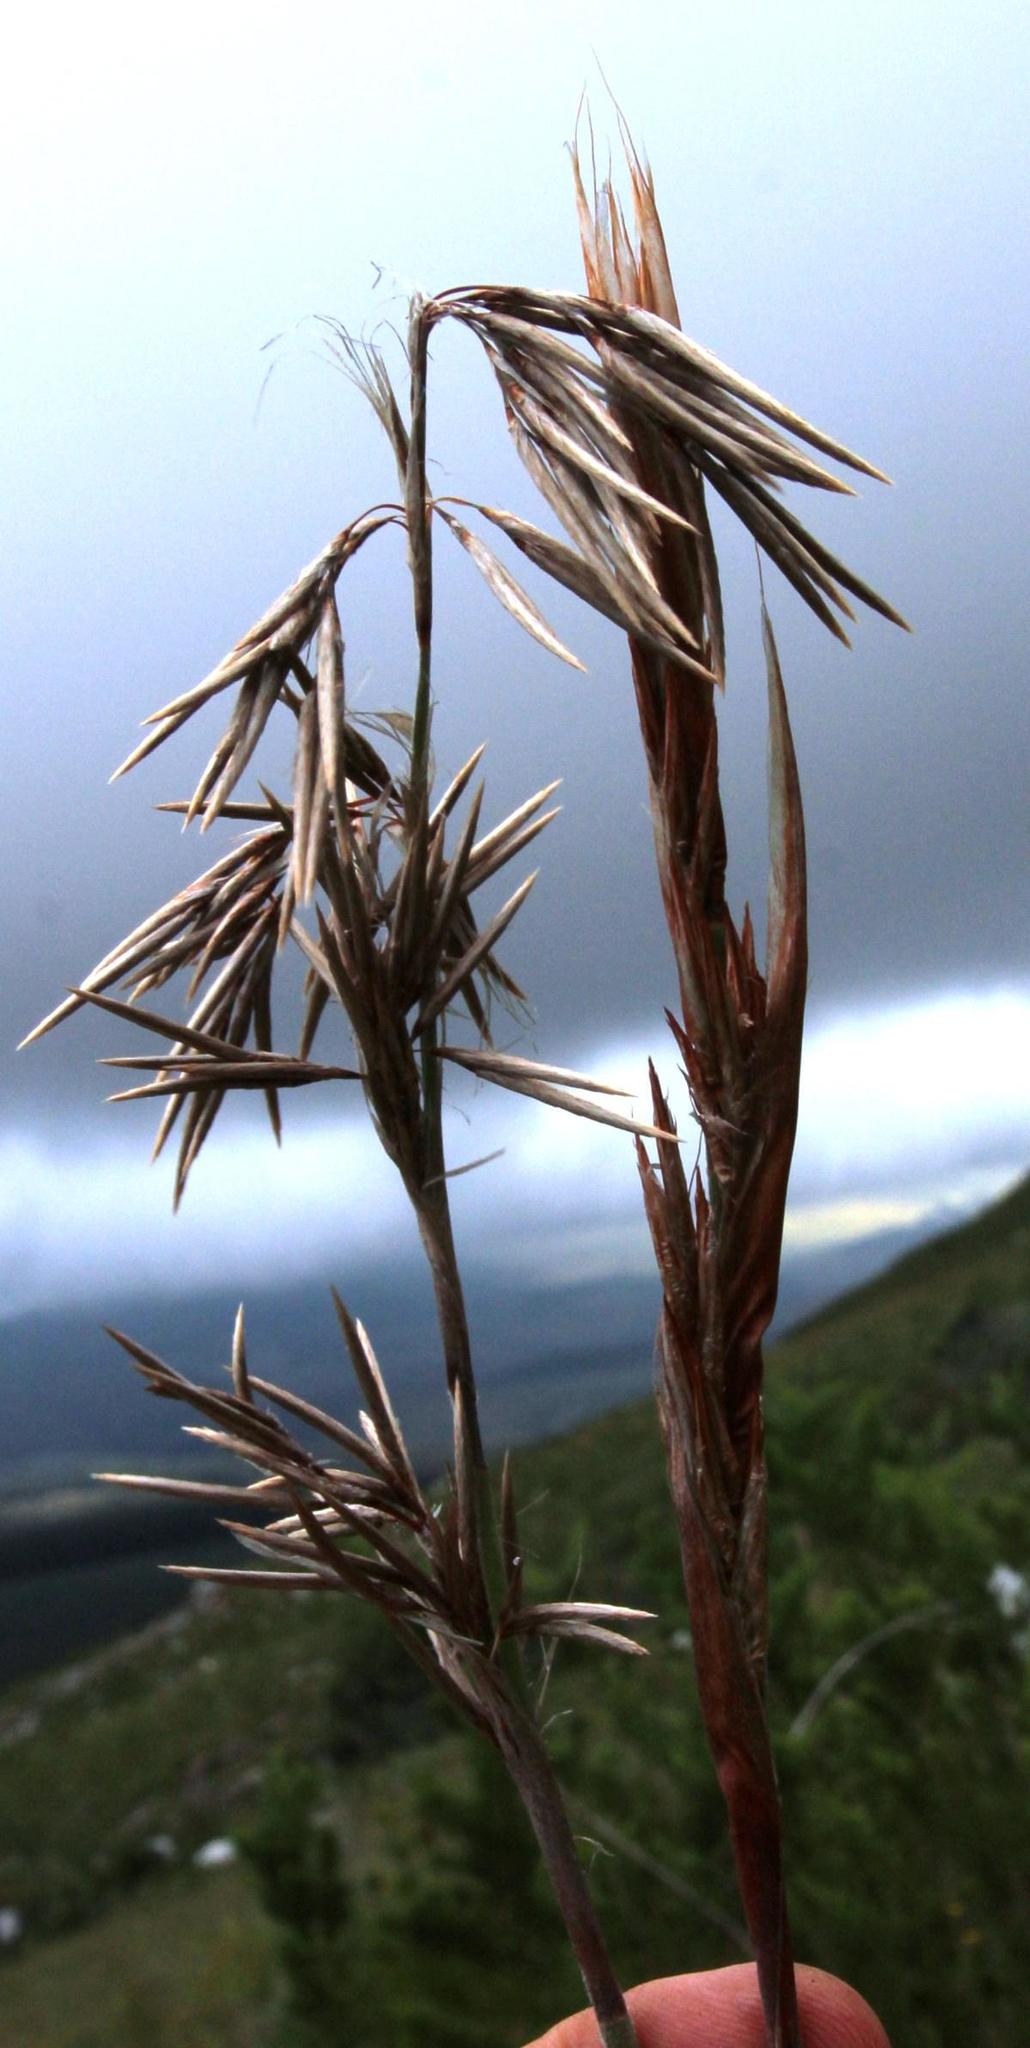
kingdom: Plantae
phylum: Tracheophyta
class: Liliopsida
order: Poales
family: Restionaceae
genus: Thamnochortus
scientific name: Thamnochortus cinereus
